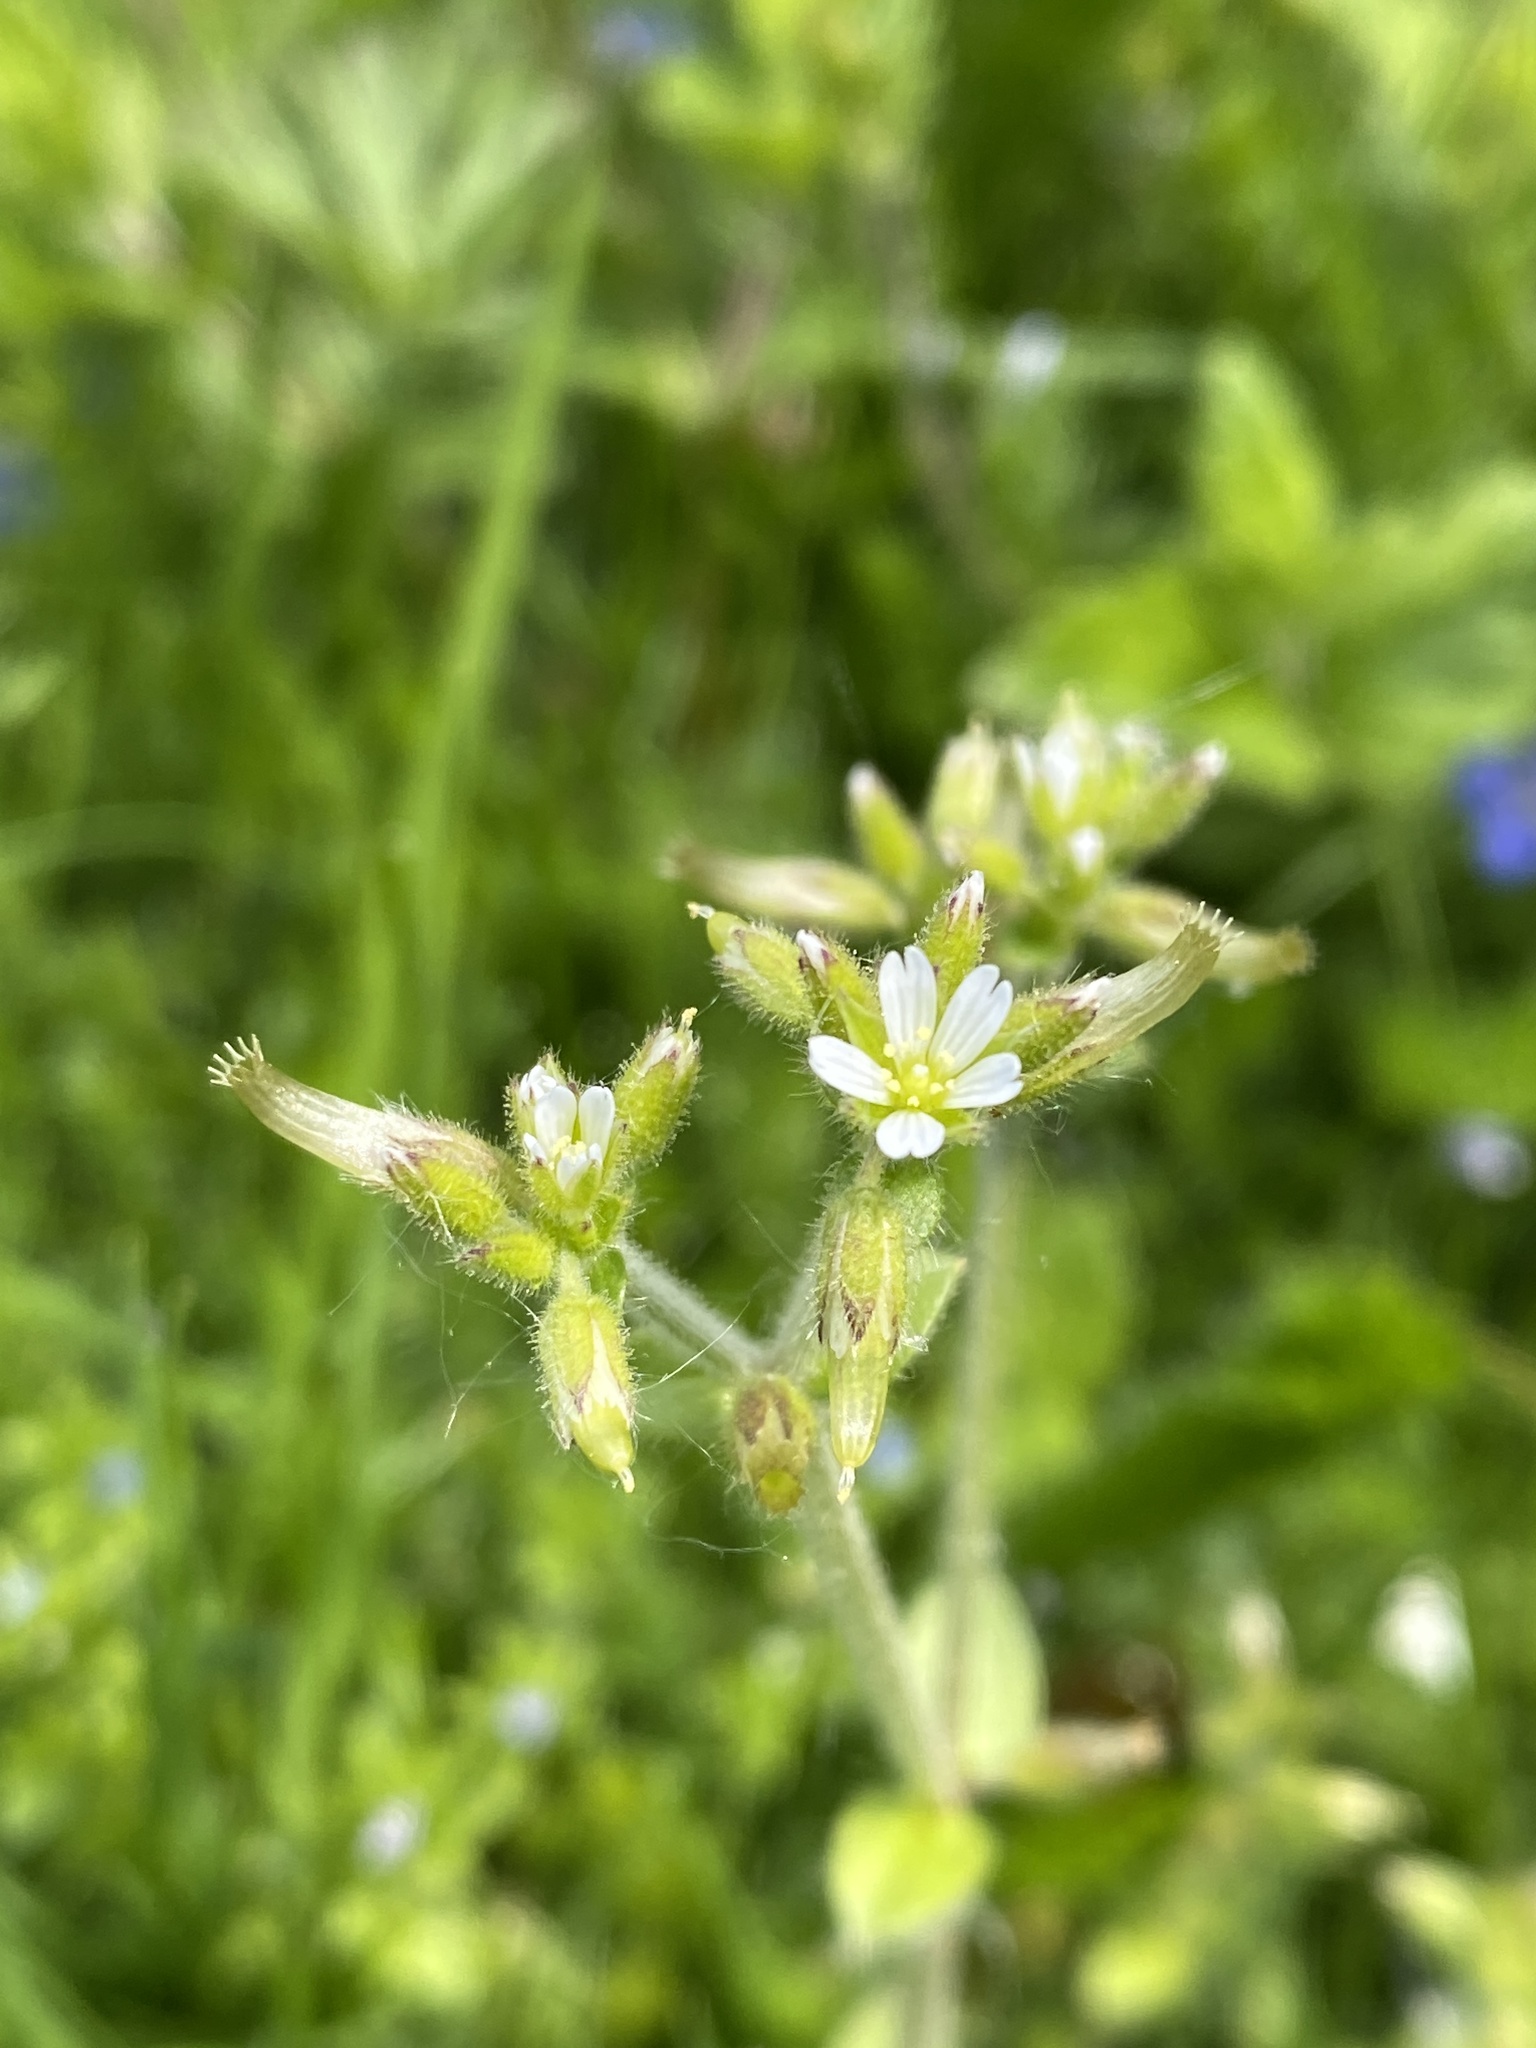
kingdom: Plantae
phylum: Tracheophyta
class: Magnoliopsida
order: Caryophyllales
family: Caryophyllaceae
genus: Cerastium
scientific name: Cerastium glomeratum
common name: Sticky chickweed
